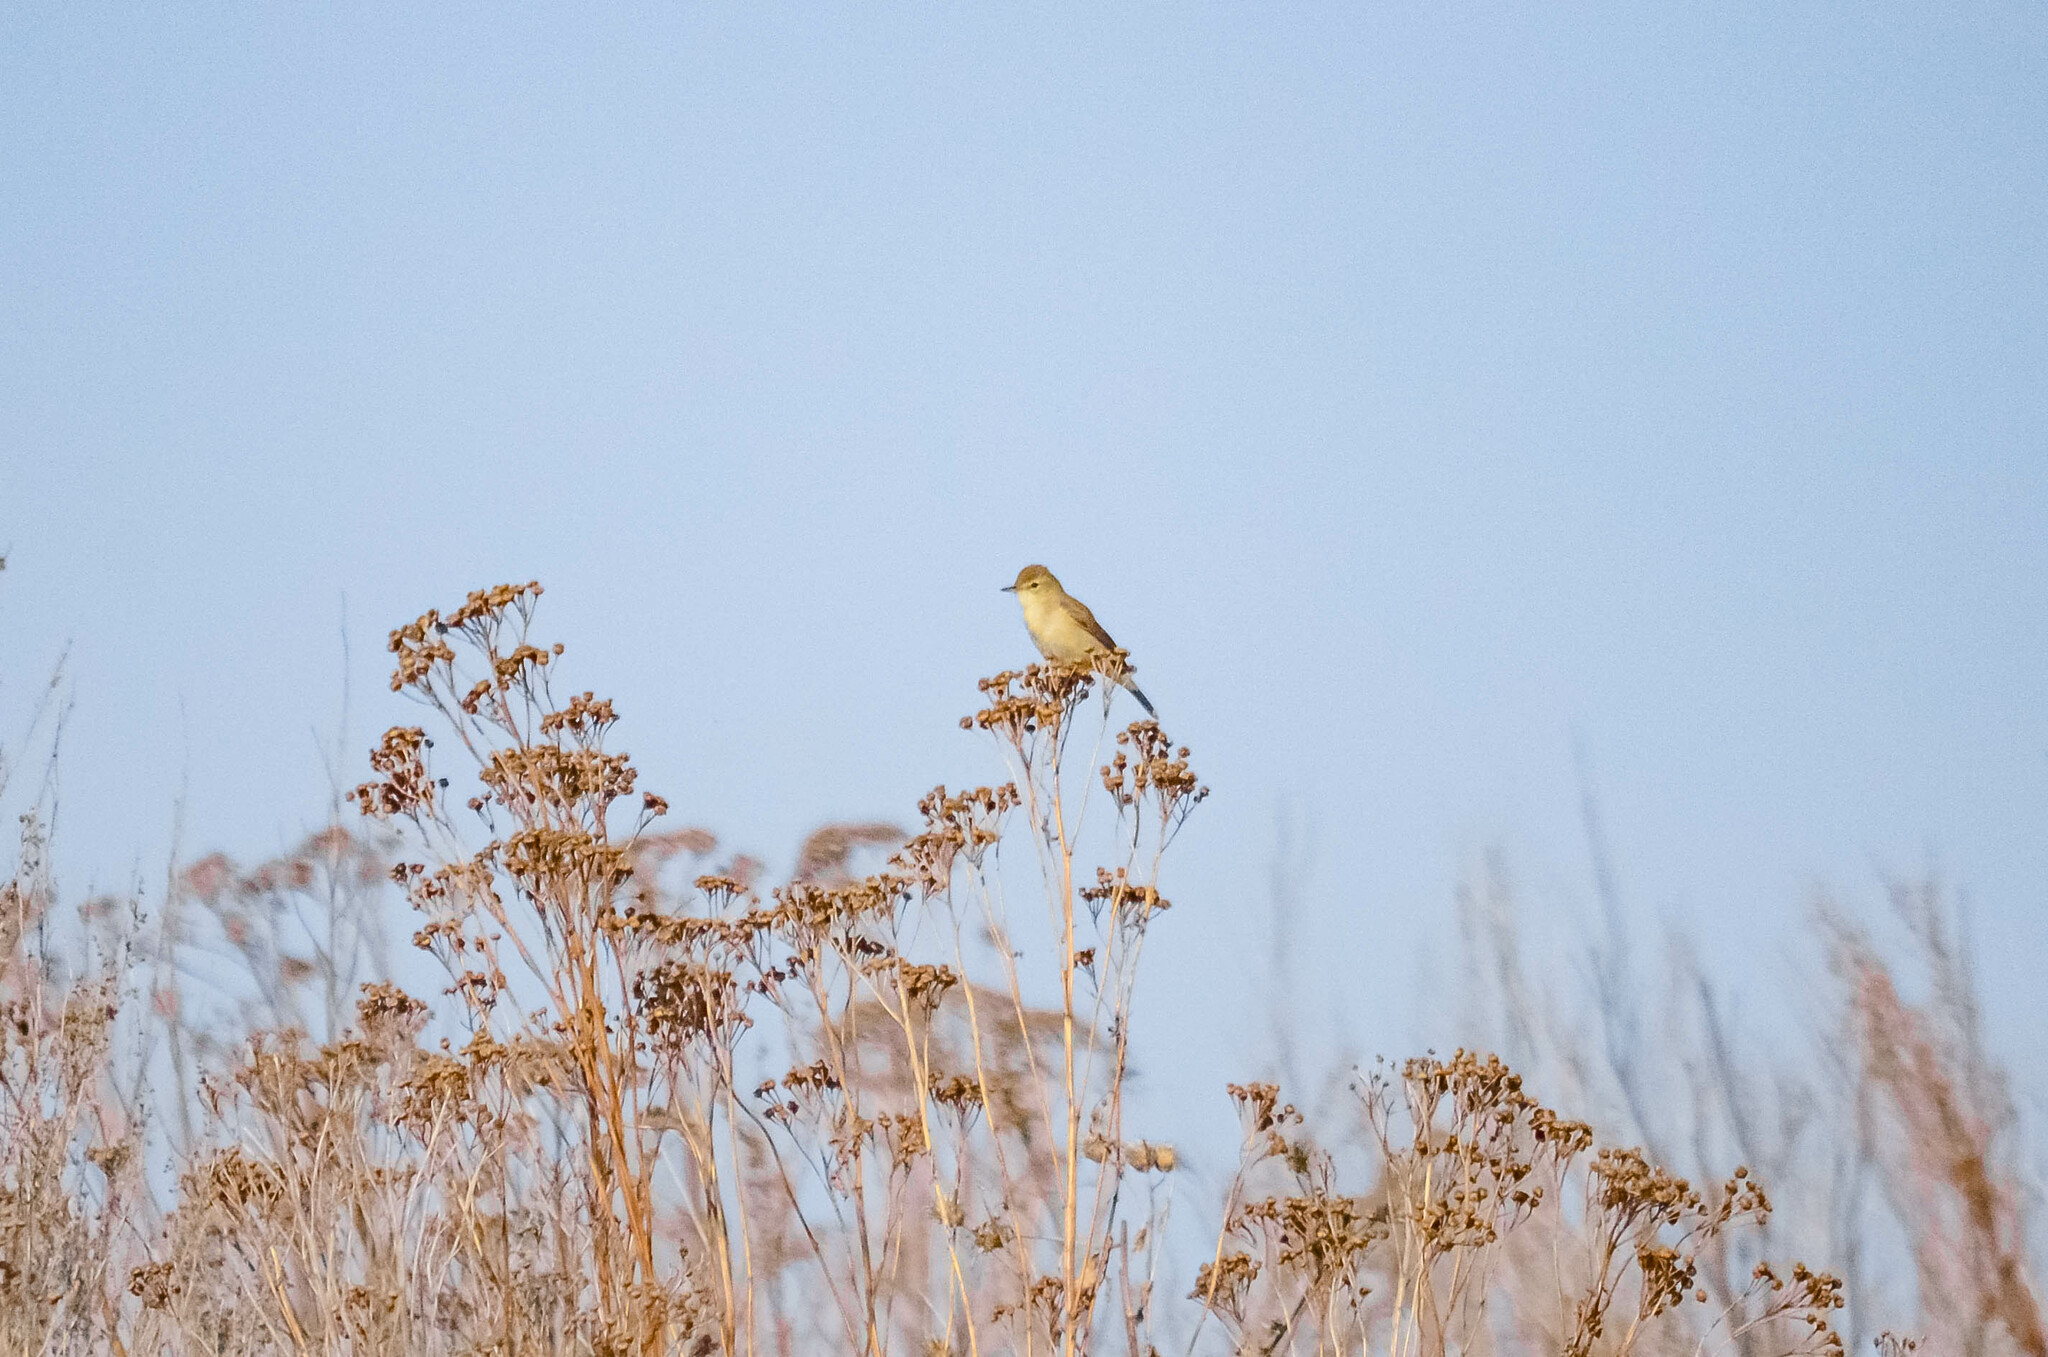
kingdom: Animalia
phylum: Chordata
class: Aves
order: Passeriformes
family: Acrocephalidae
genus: Iduna
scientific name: Iduna caligata
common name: Booted warbler
